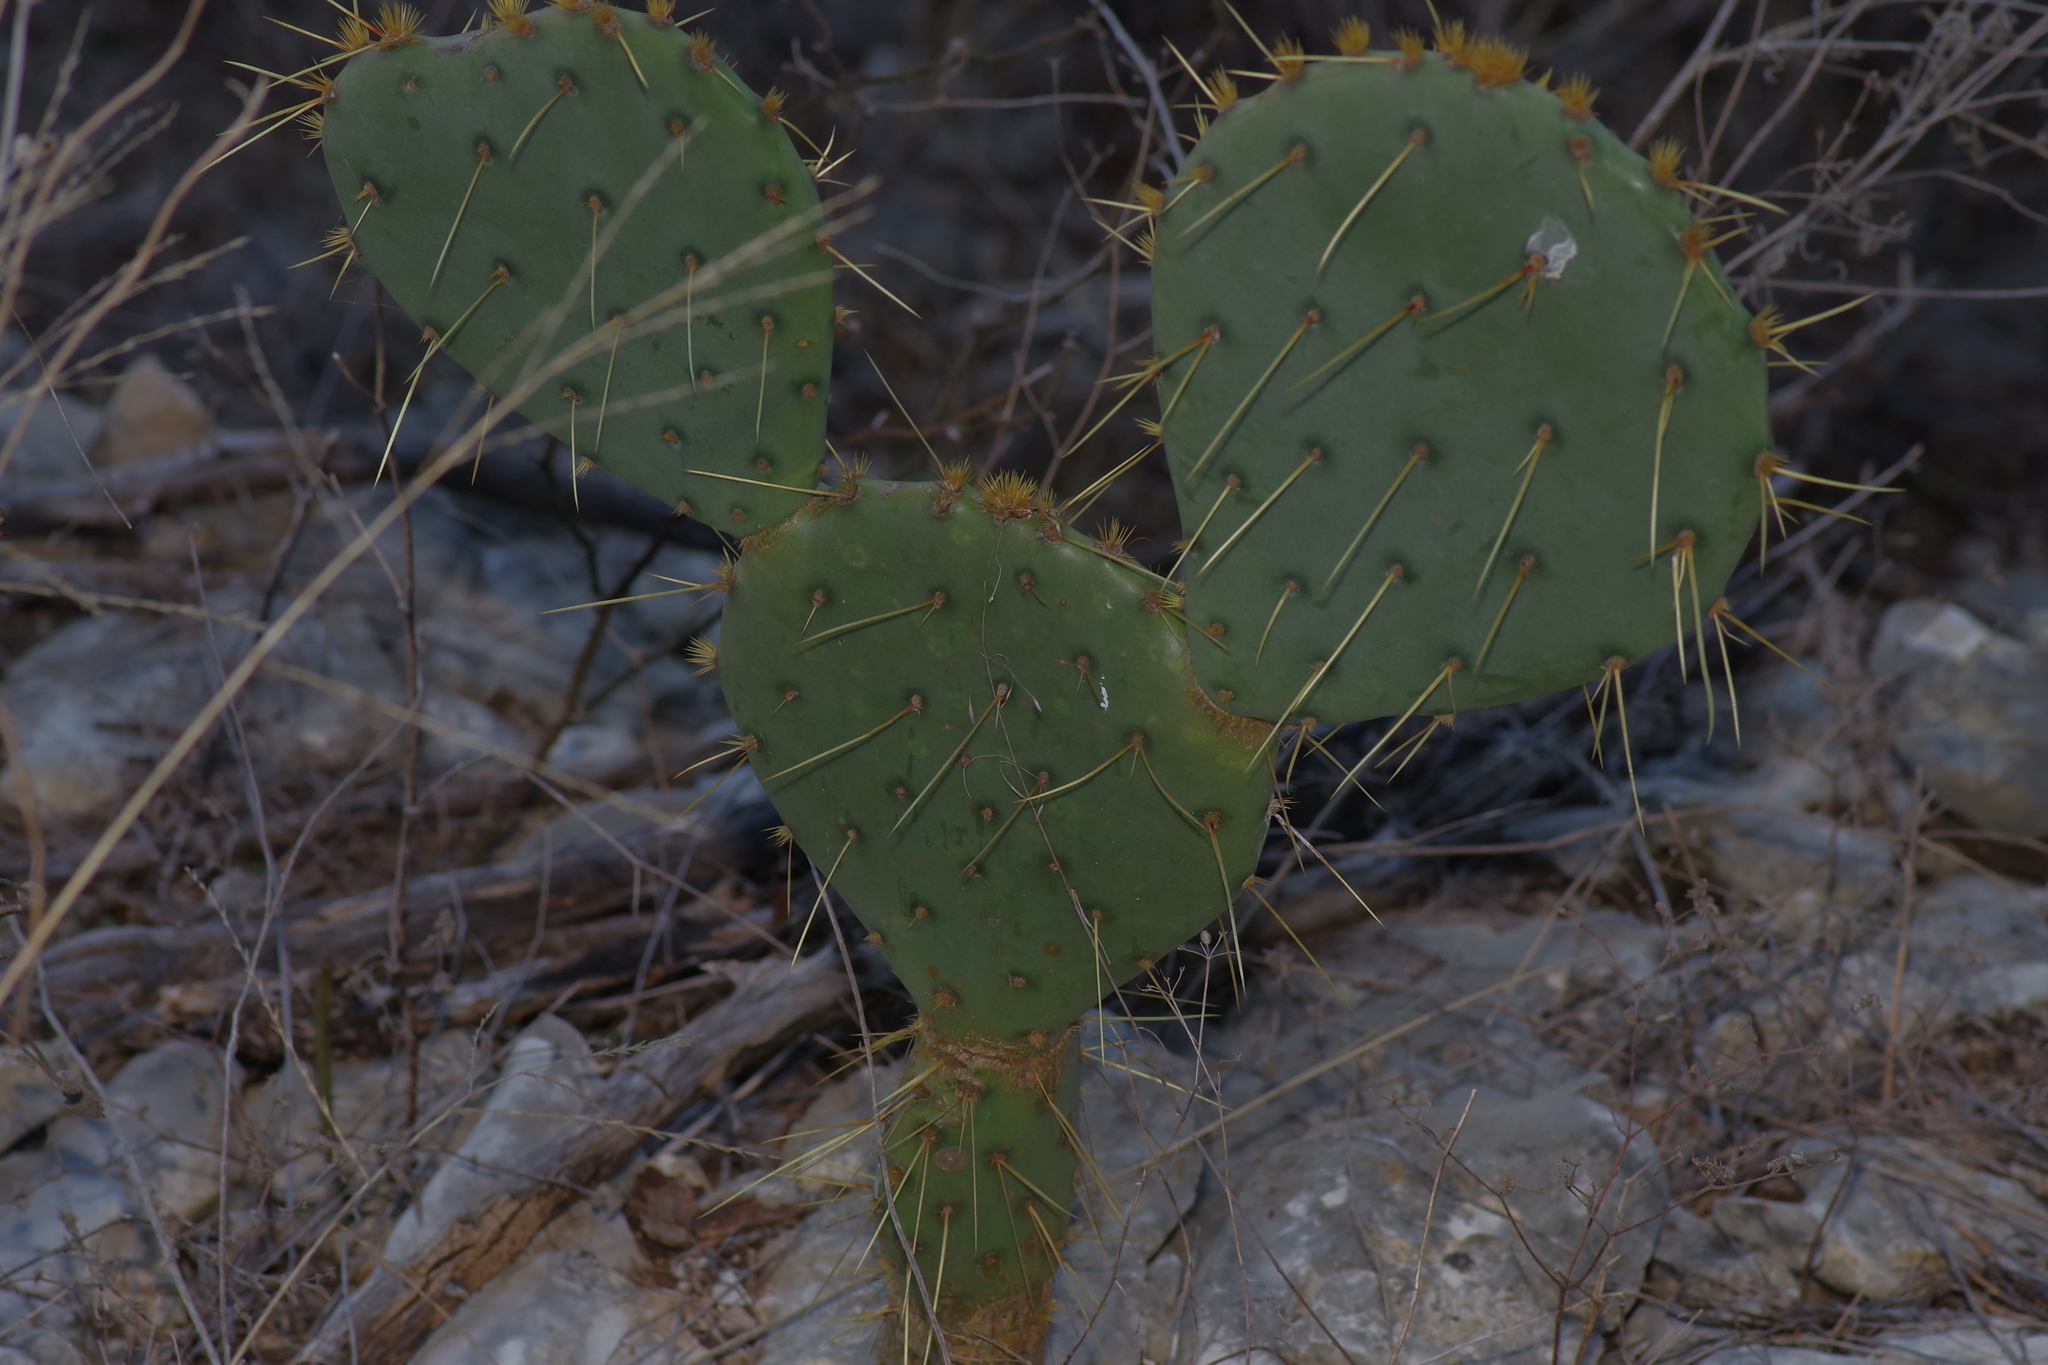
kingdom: Plantae
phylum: Tracheophyta
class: Magnoliopsida
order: Caryophyllales
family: Cactaceae
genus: Opuntia
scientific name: Opuntia orbiculata
